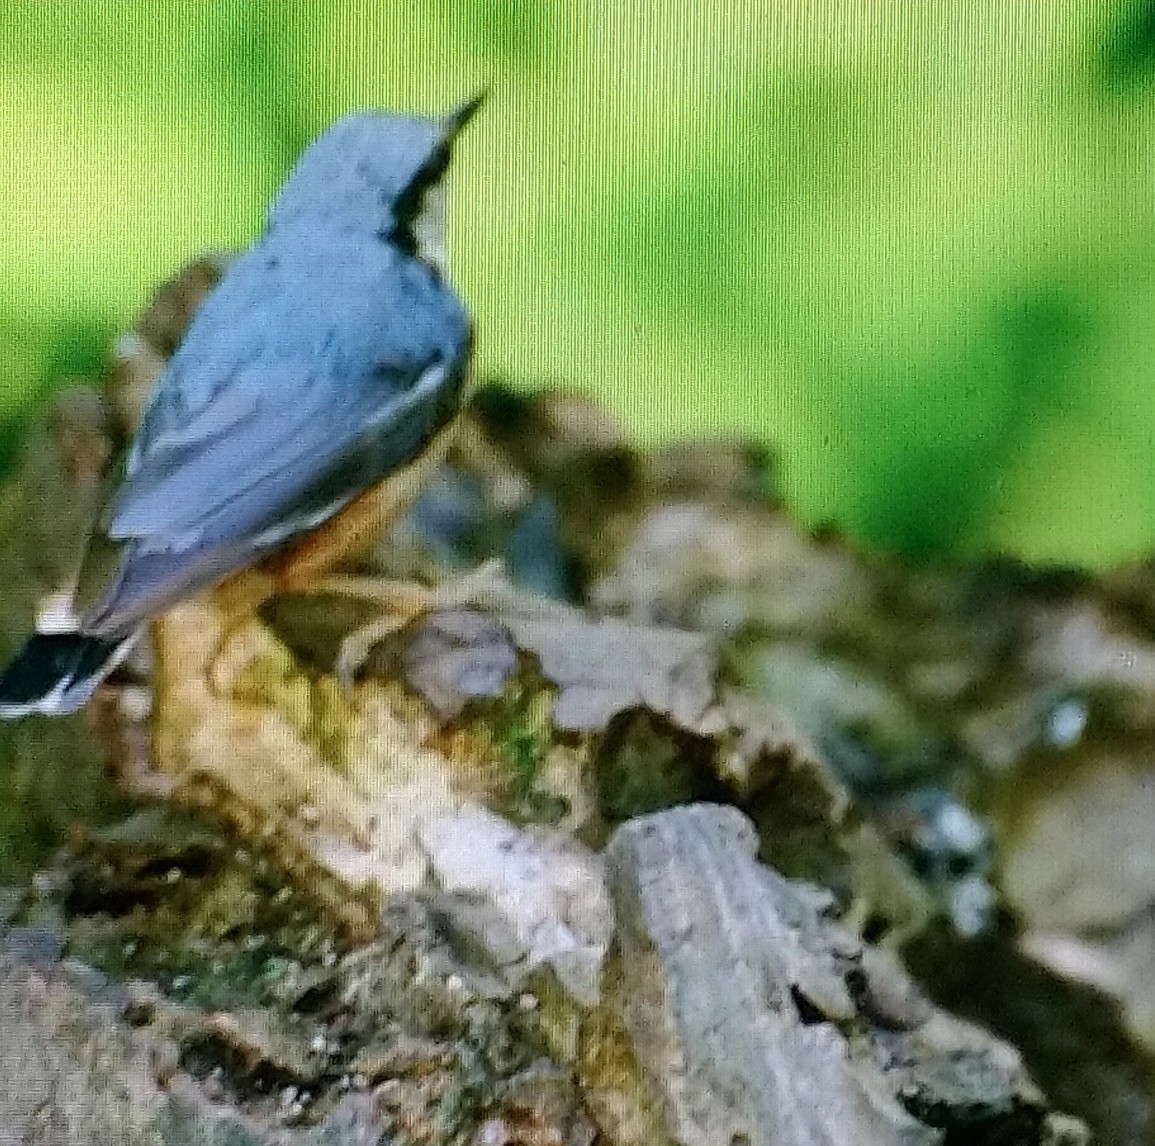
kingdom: Animalia
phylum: Chordata
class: Aves
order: Passeriformes
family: Sittidae
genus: Sitta
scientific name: Sitta europaea
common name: Eurasian nuthatch
